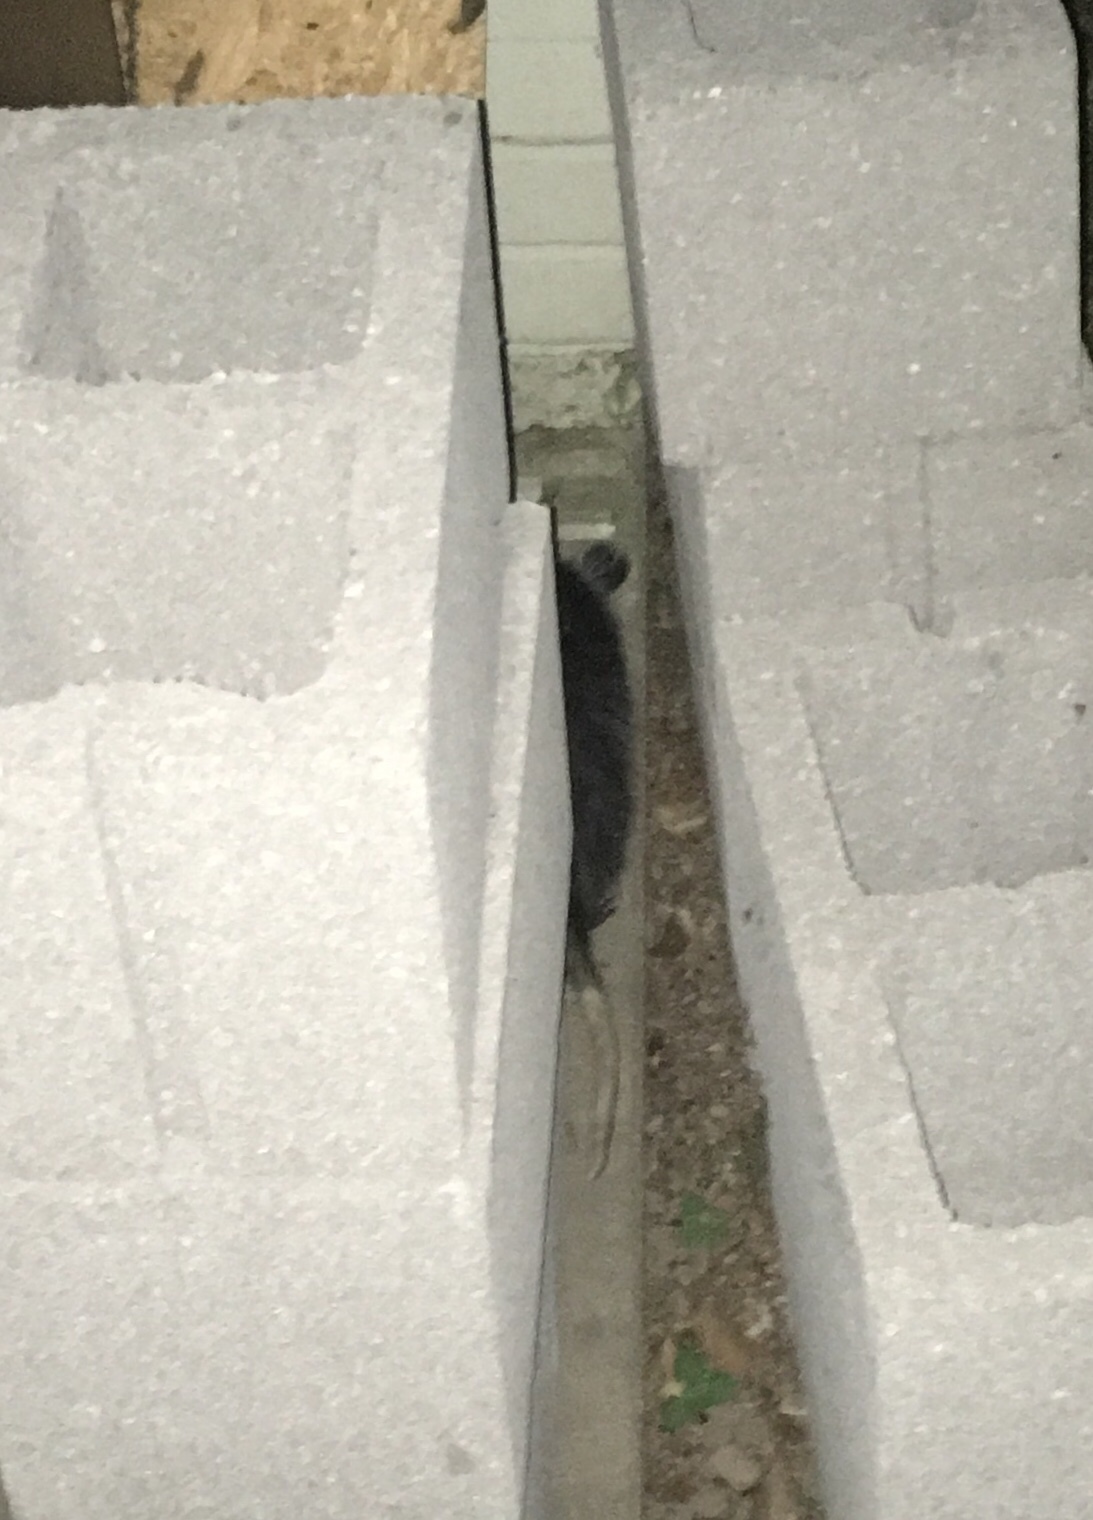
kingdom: Animalia
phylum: Chordata
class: Mammalia
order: Didelphimorphia
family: Didelphidae
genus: Didelphis
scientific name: Didelphis virginiana
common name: Virginia opossum
